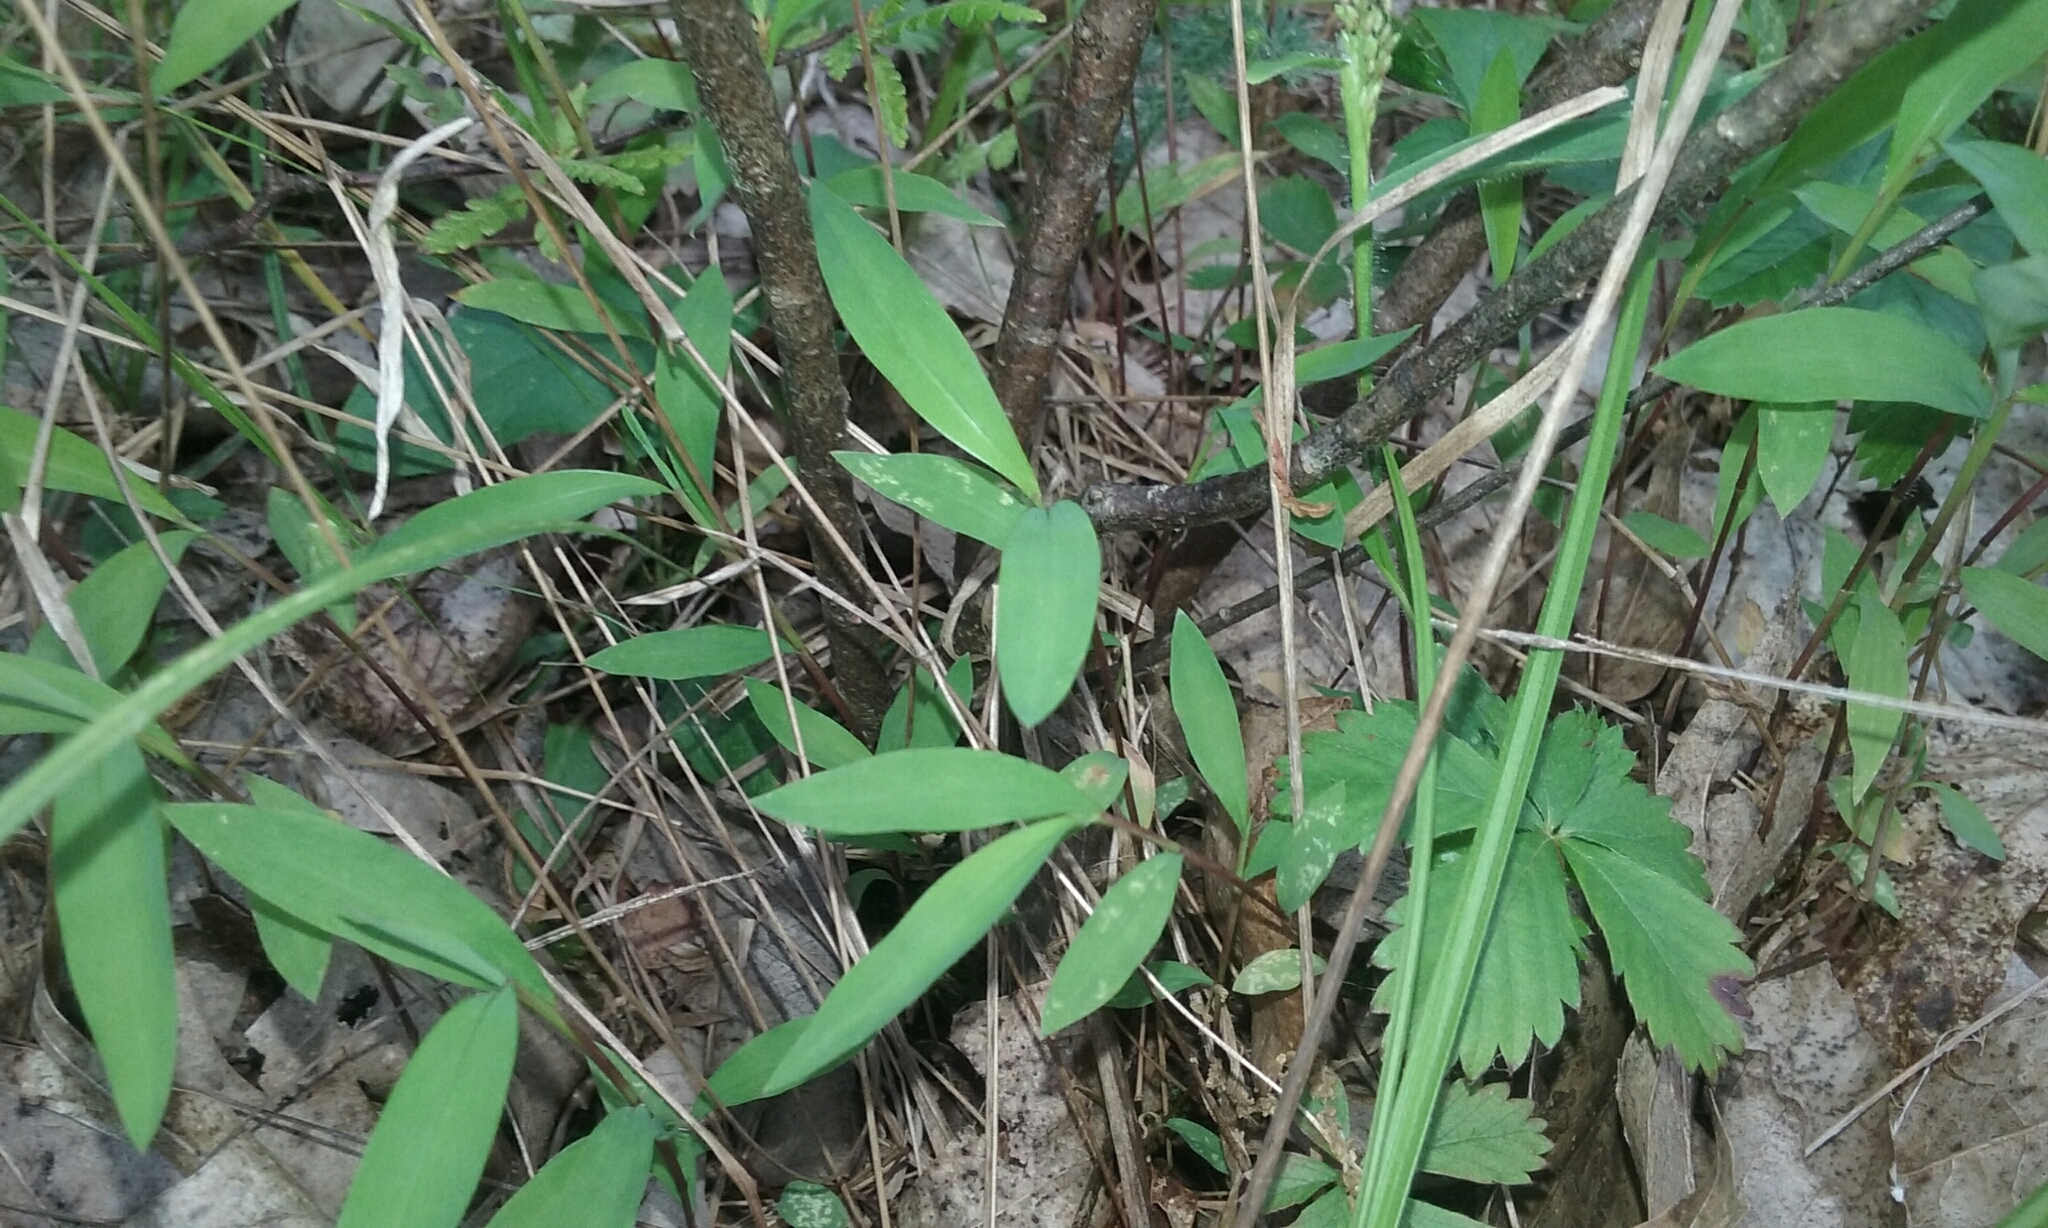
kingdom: Plantae
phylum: Tracheophyta
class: Magnoliopsida
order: Fagales
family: Myricaceae
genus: Comptonia
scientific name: Comptonia peregrina
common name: Sweet-fern
